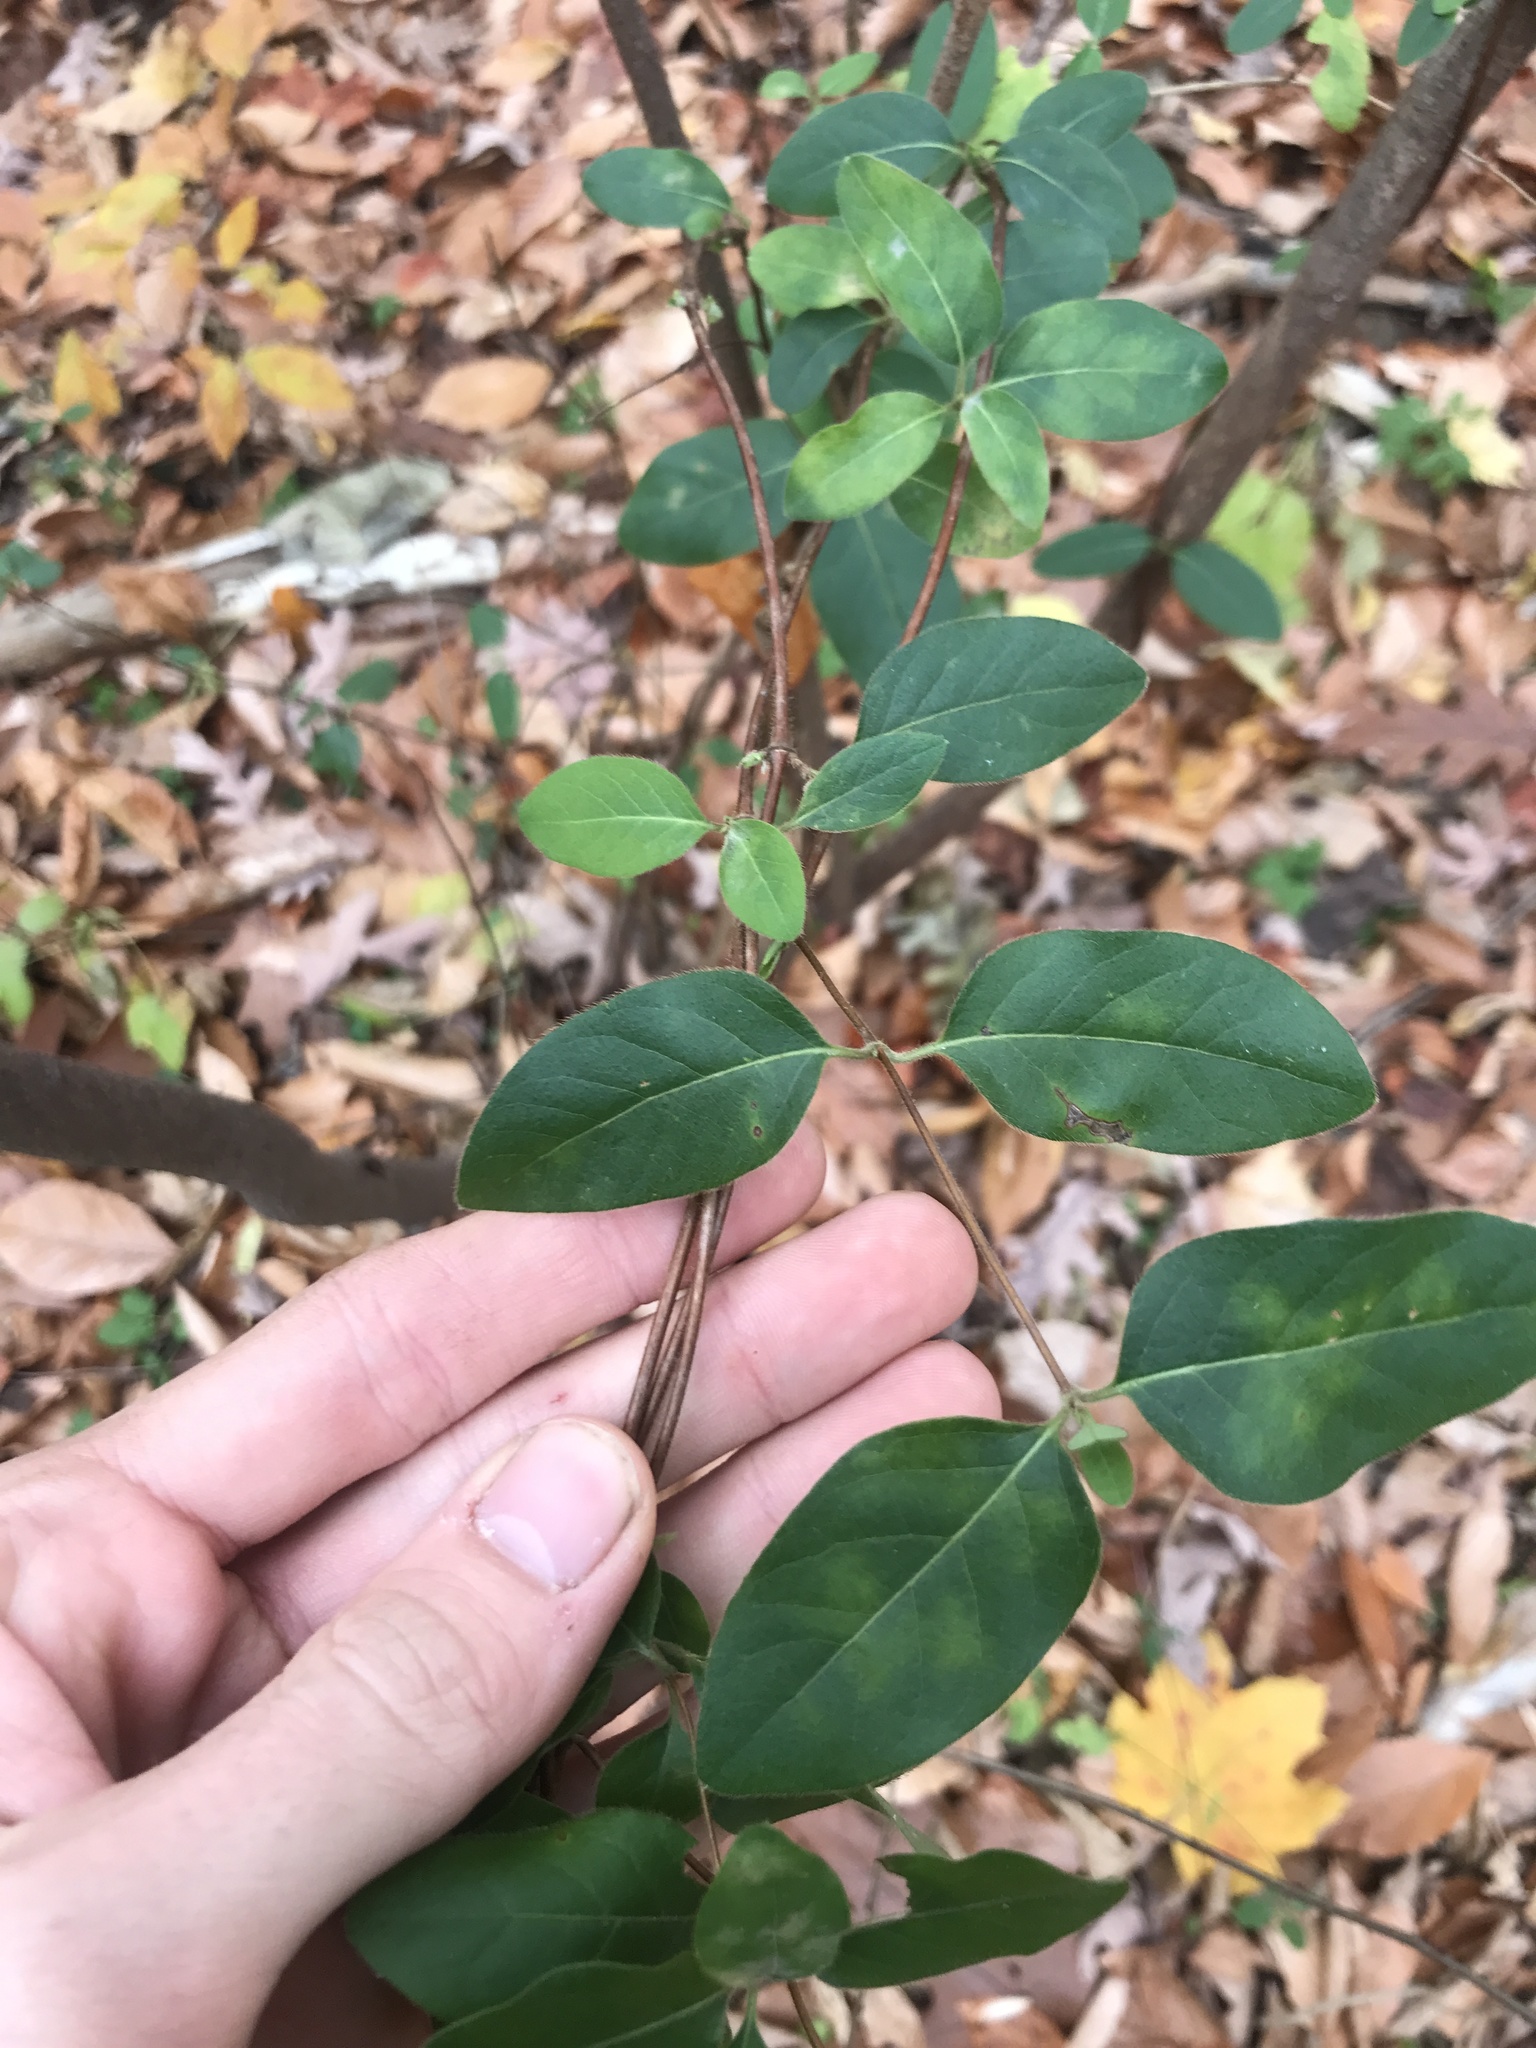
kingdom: Plantae
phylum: Tracheophyta
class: Magnoliopsida
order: Dipsacales
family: Caprifoliaceae
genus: Lonicera
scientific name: Lonicera japonica
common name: Japanese honeysuckle
